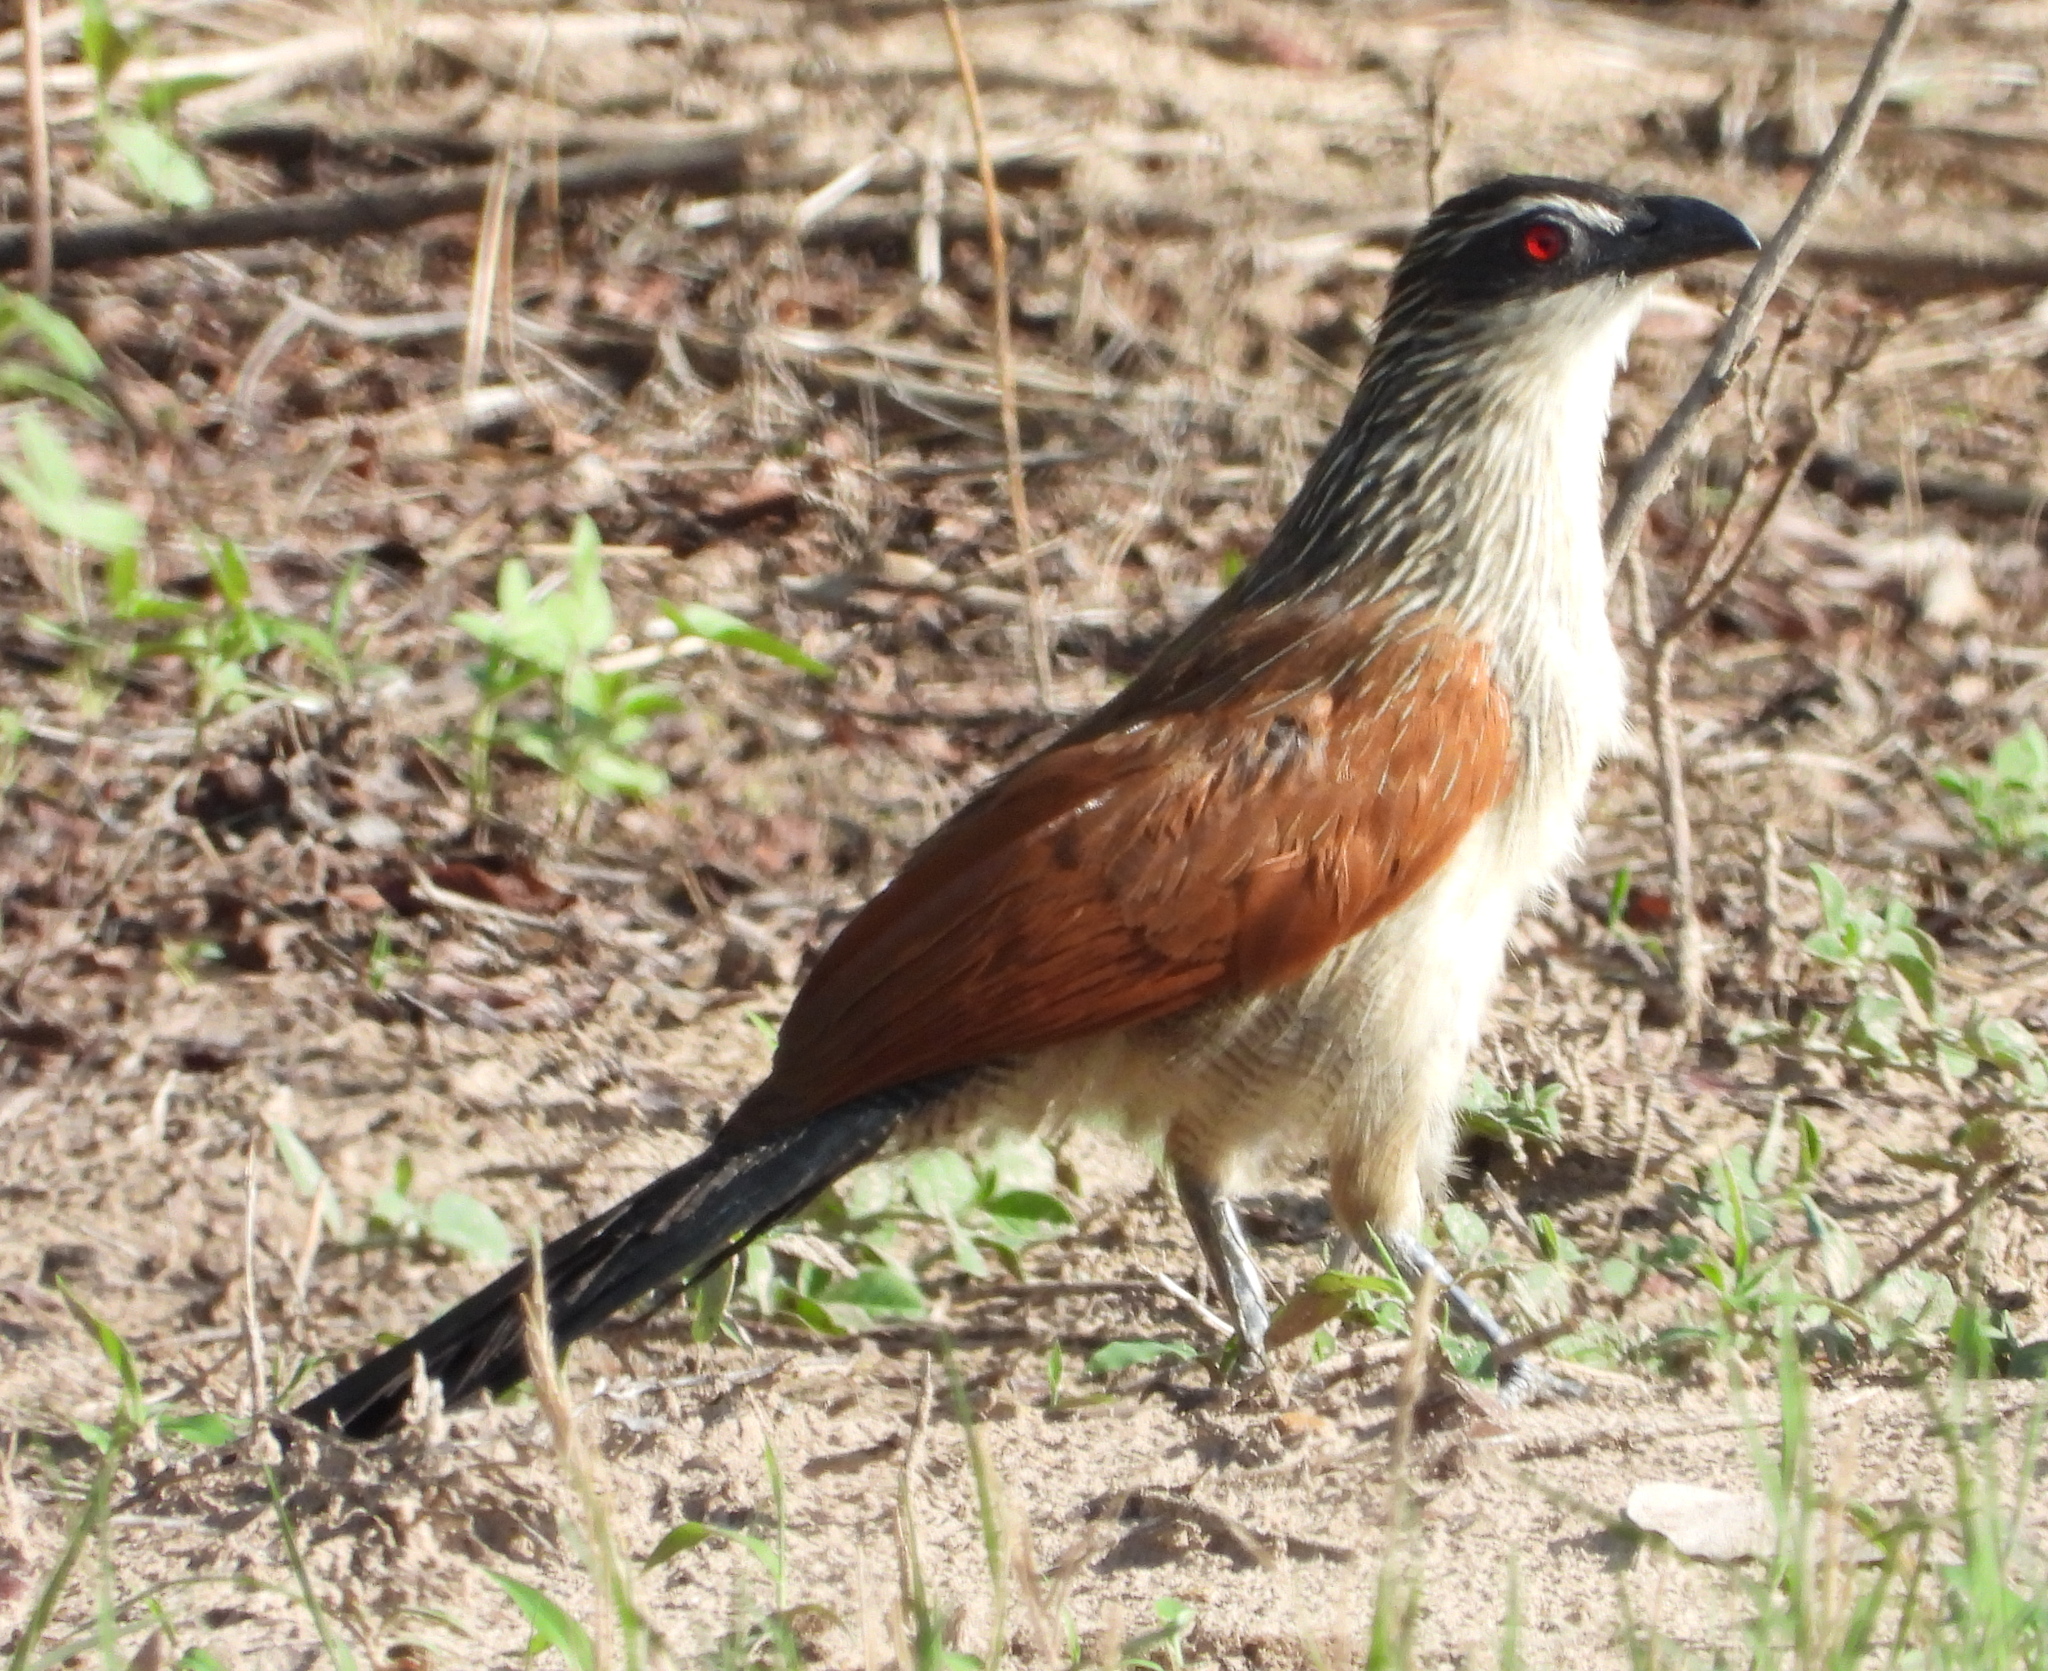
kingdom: Animalia
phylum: Chordata
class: Aves
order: Cuculiformes
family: Cuculidae
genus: Centropus
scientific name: Centropus superciliosus
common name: White-browed coucal
